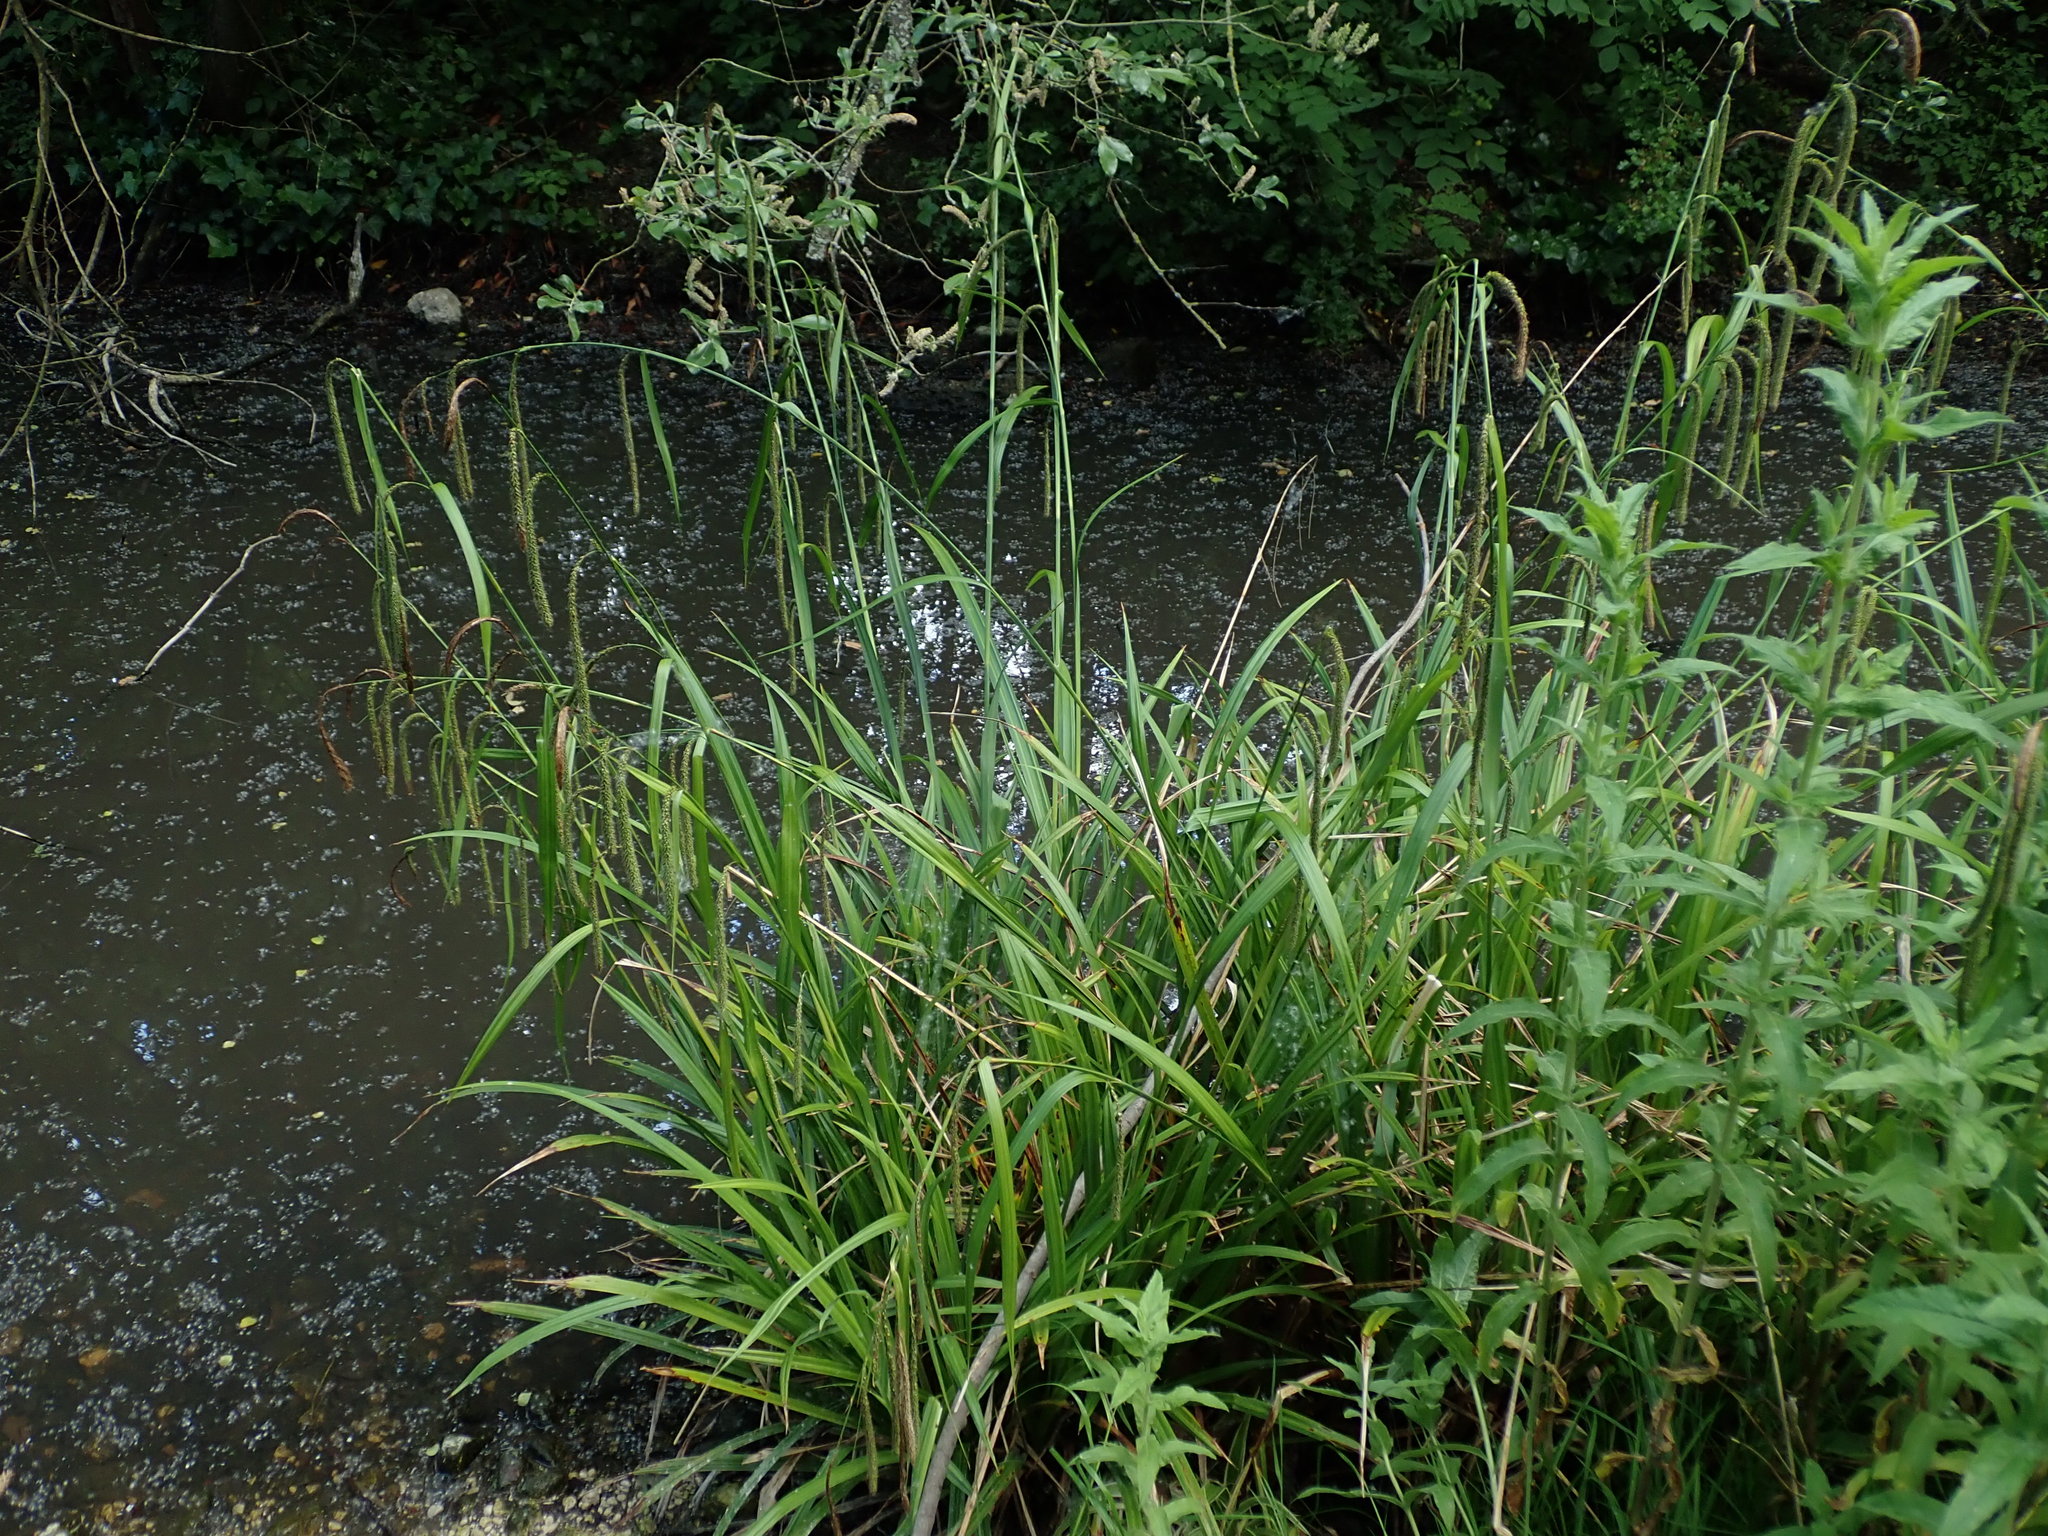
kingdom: Plantae
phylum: Tracheophyta
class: Liliopsida
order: Poales
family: Cyperaceae
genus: Carex
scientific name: Carex pendula
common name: Pendulous sedge
